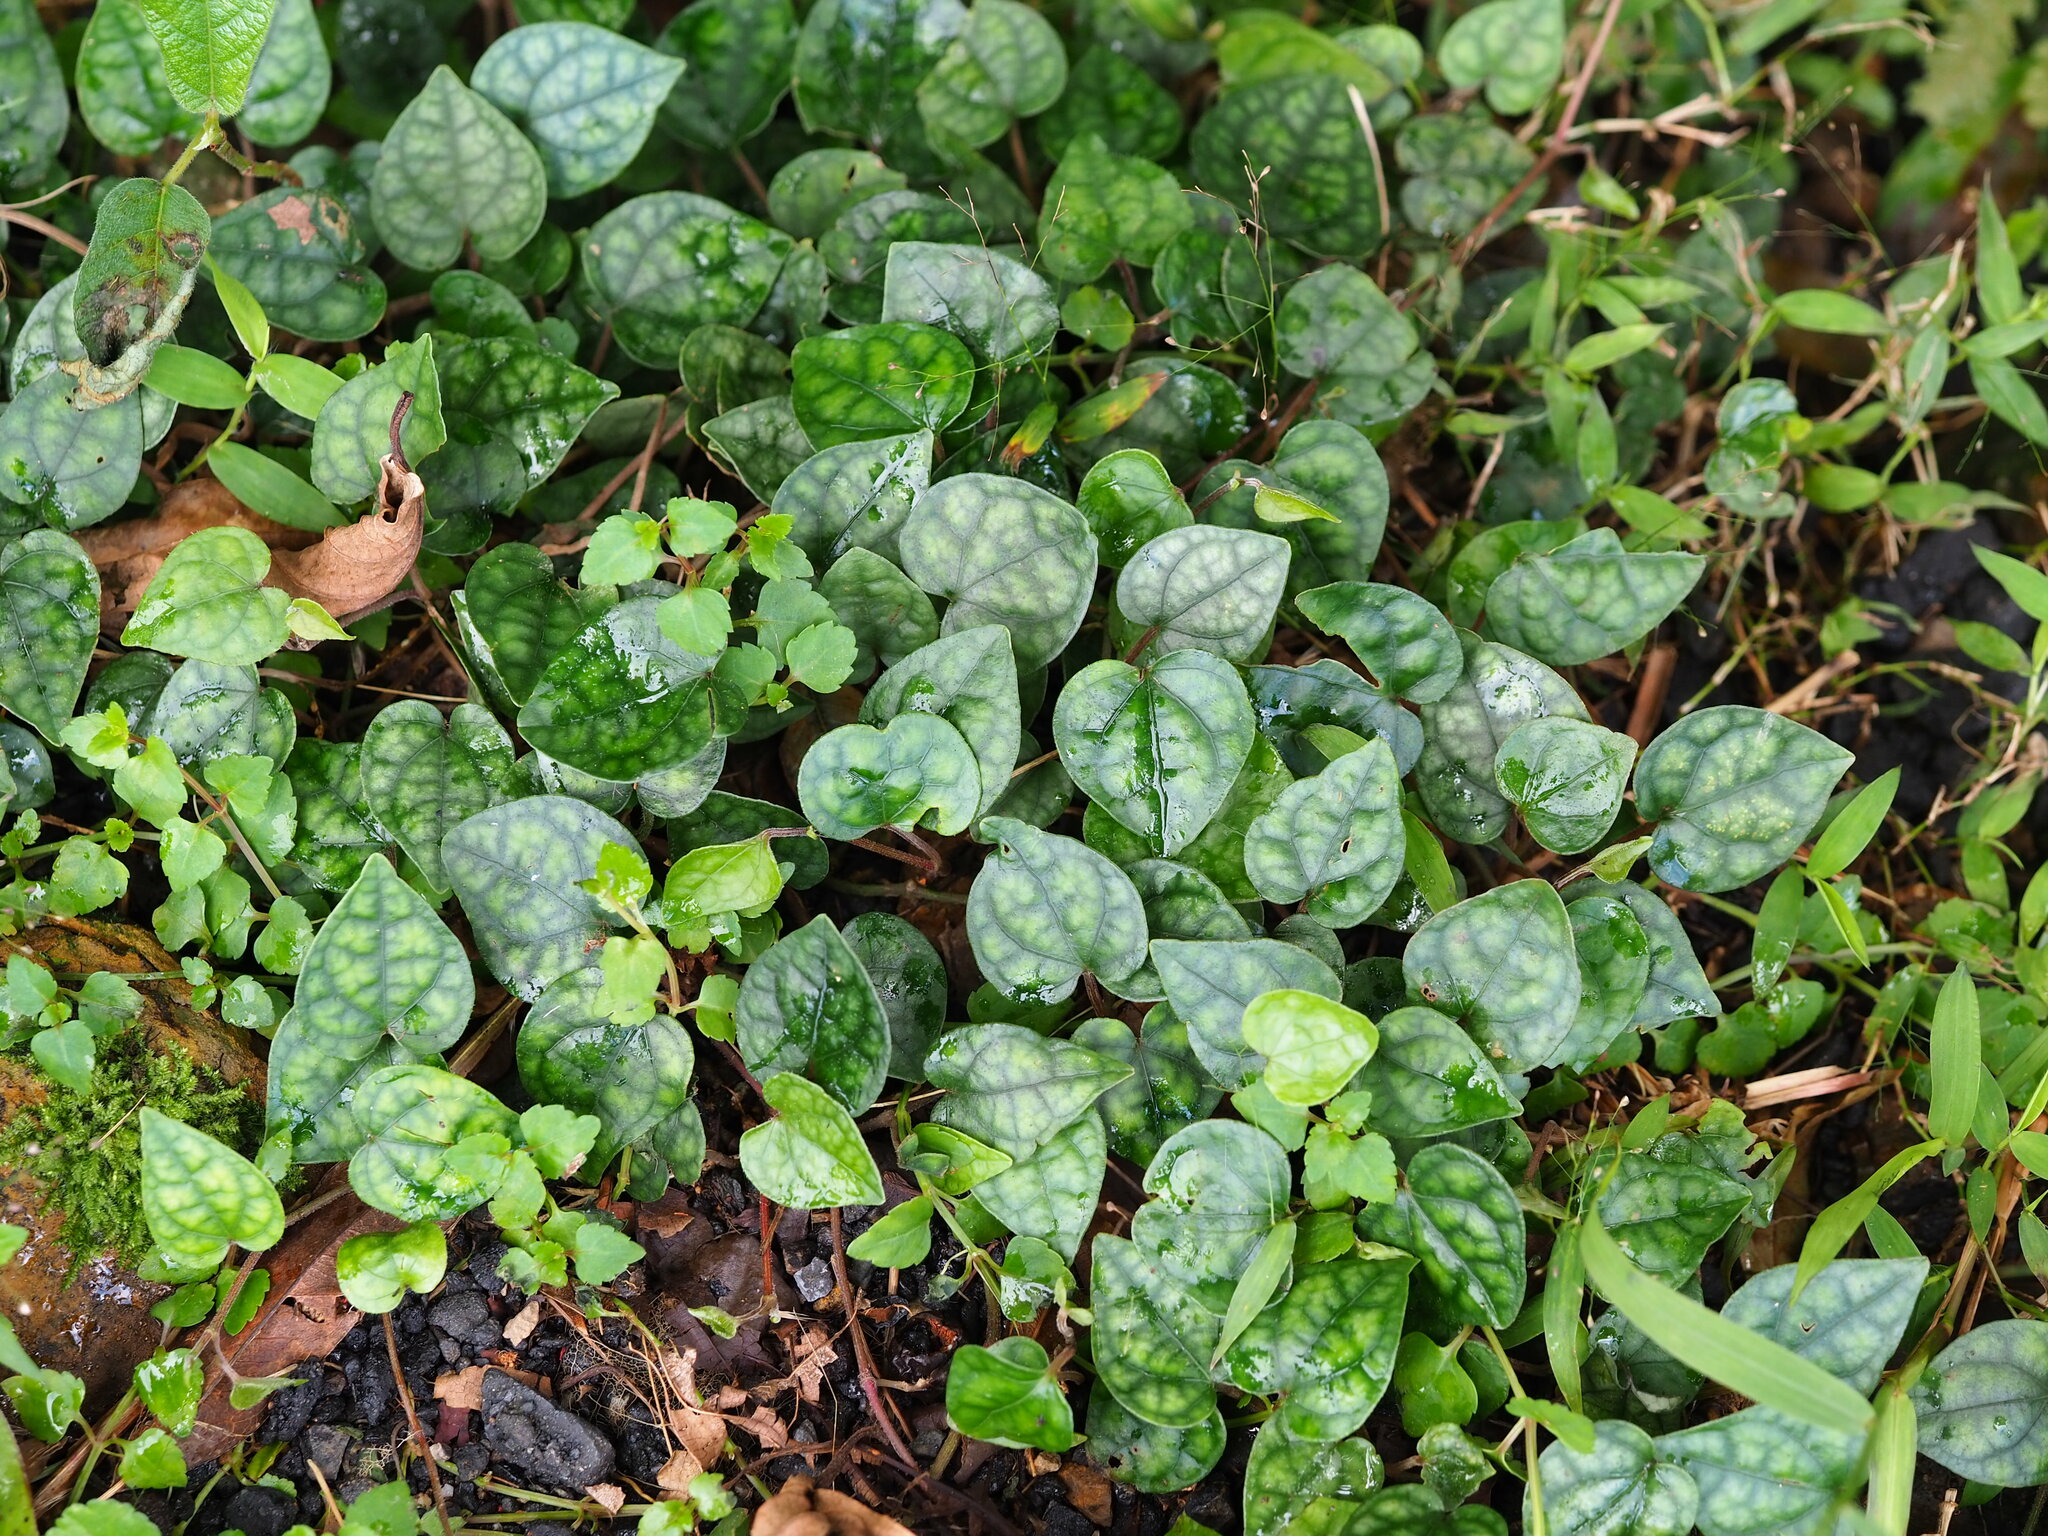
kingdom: Plantae
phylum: Tracheophyta
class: Magnoliopsida
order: Piperales
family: Piperaceae
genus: Piper
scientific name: Piper kadsura
